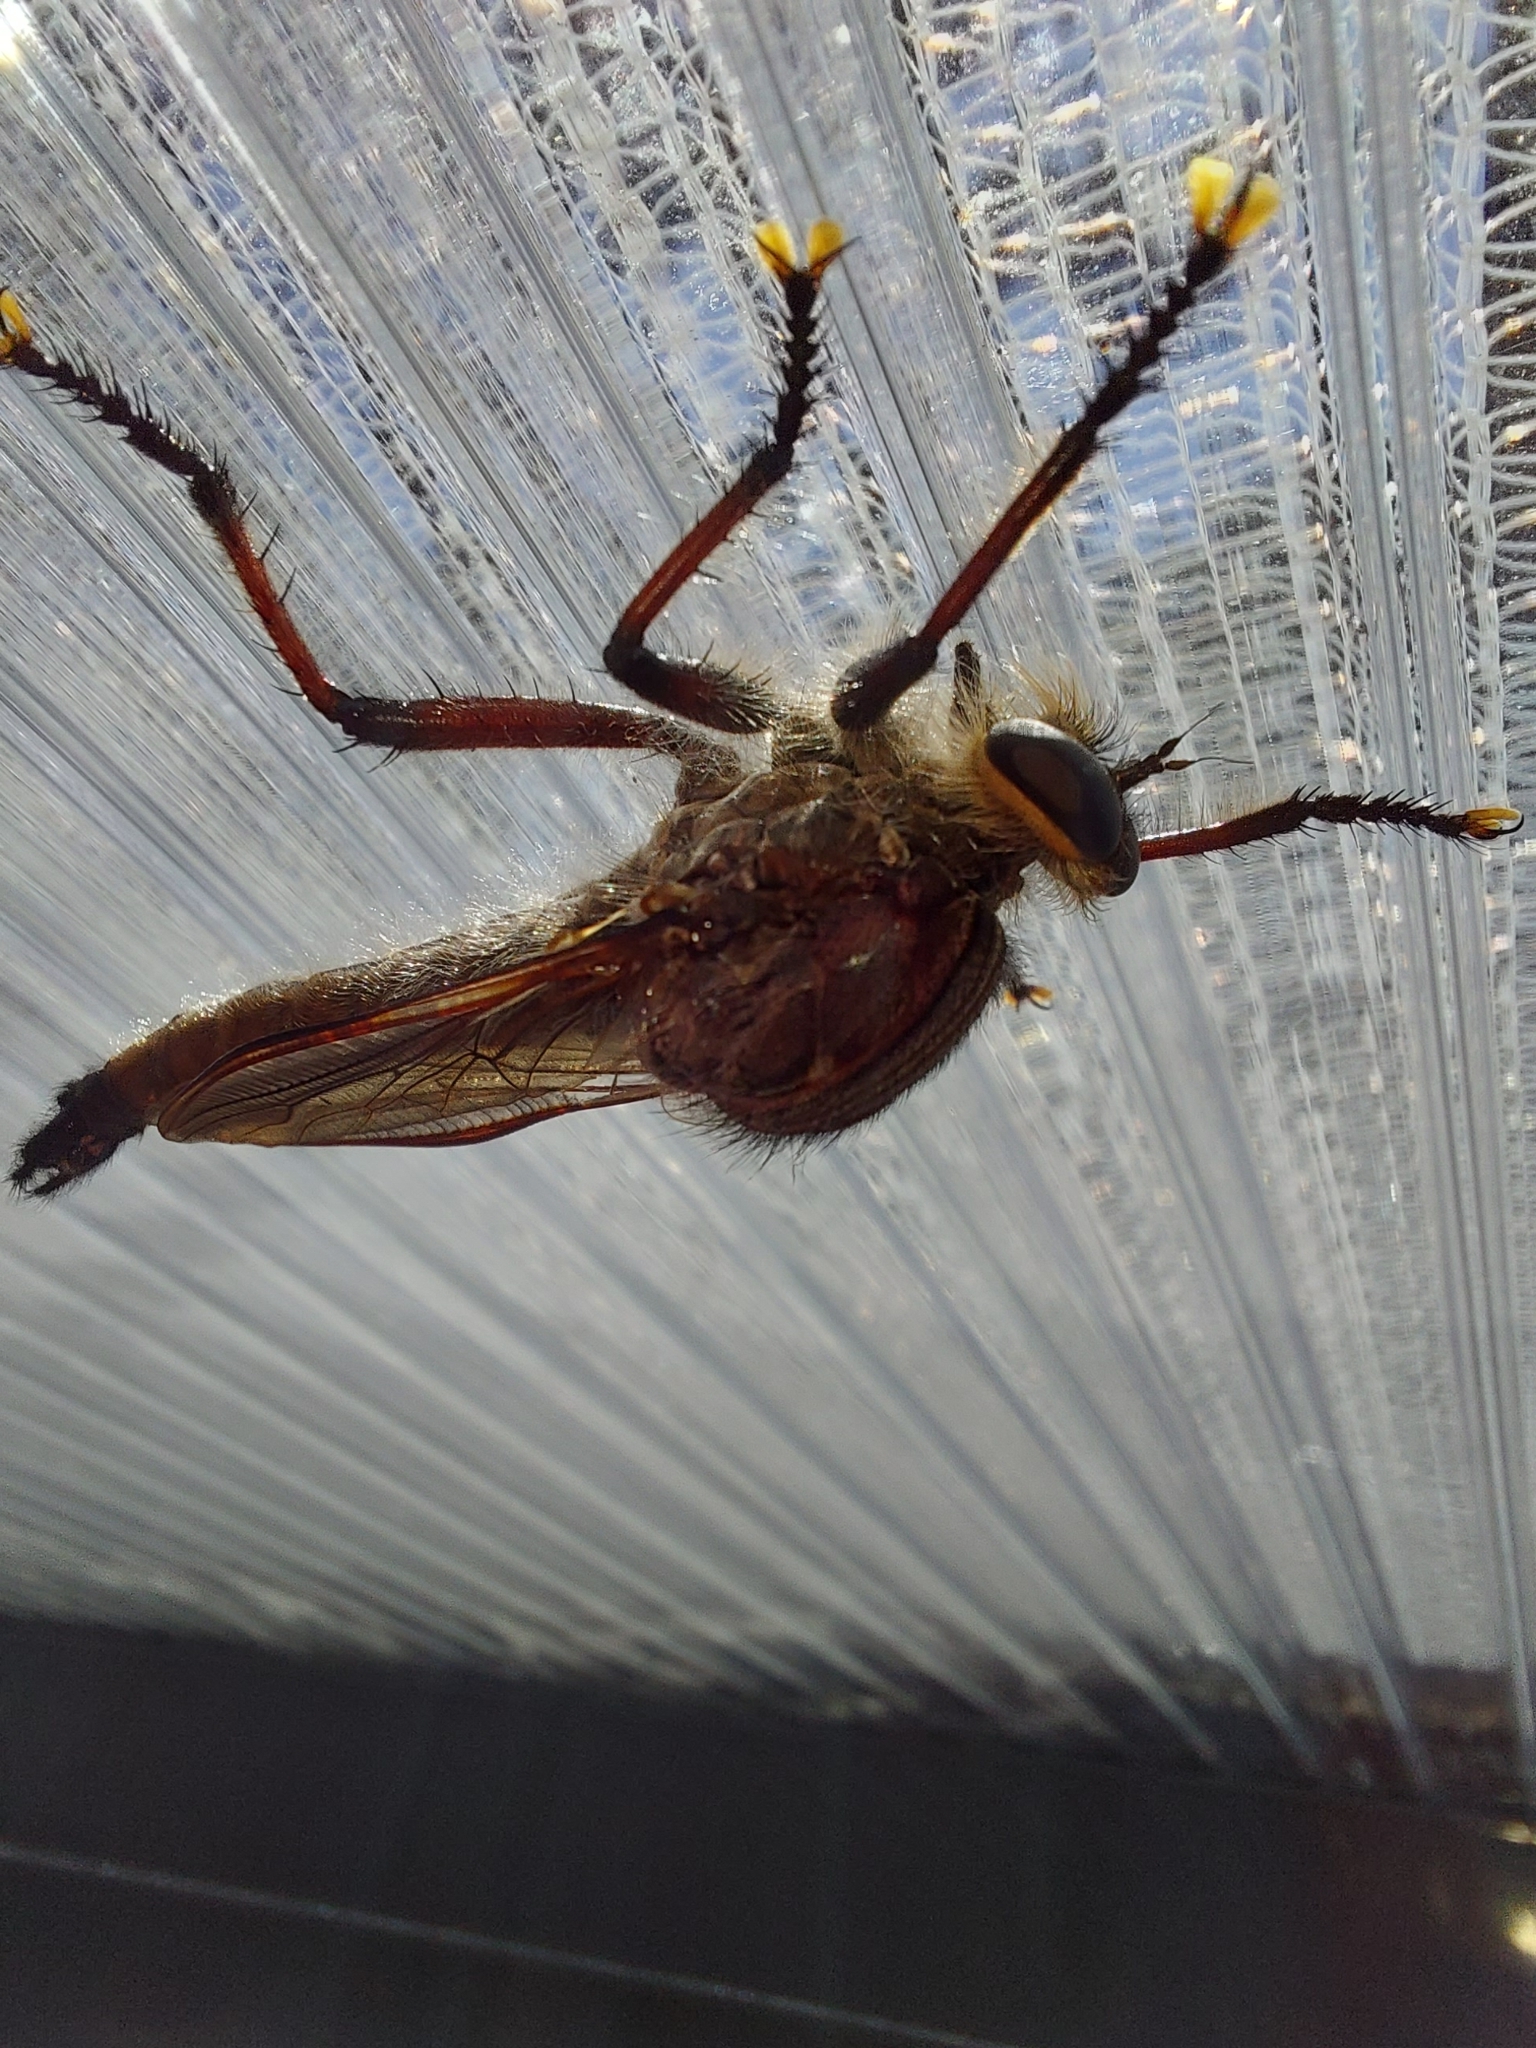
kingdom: Animalia
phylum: Arthropoda
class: Insecta
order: Diptera
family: Asilidae
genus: Neoaratus
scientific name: Neoaratus hercules
